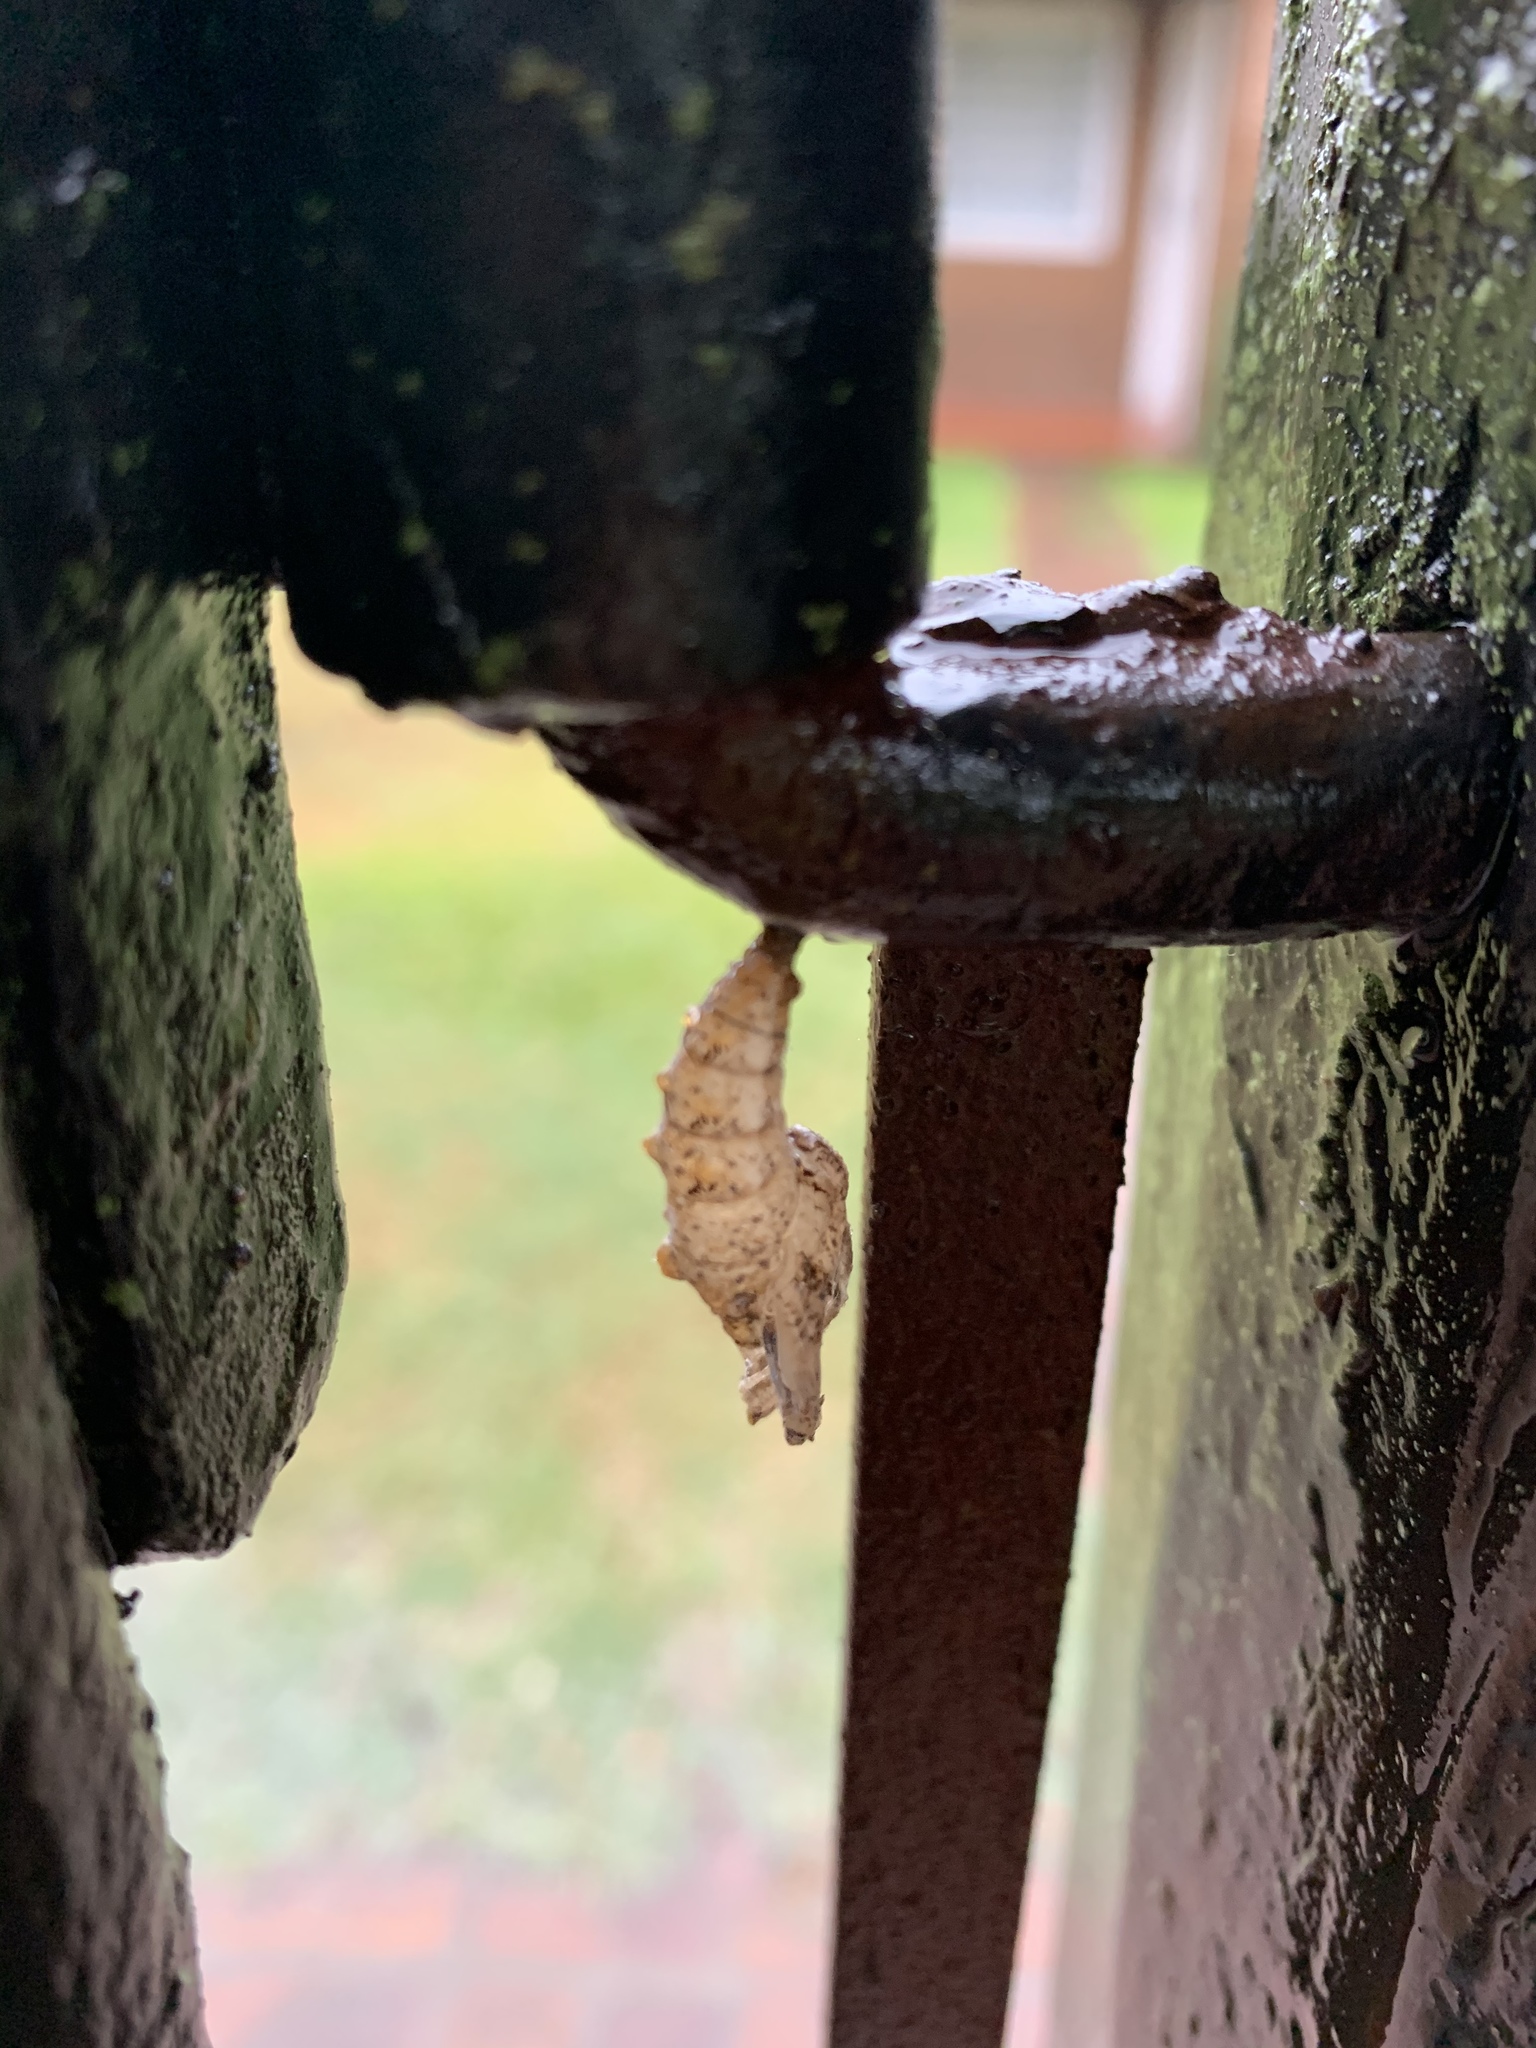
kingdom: Animalia
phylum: Arthropoda
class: Insecta
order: Lepidoptera
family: Nymphalidae
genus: Dione
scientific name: Dione vanillae
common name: Gulf fritillary
